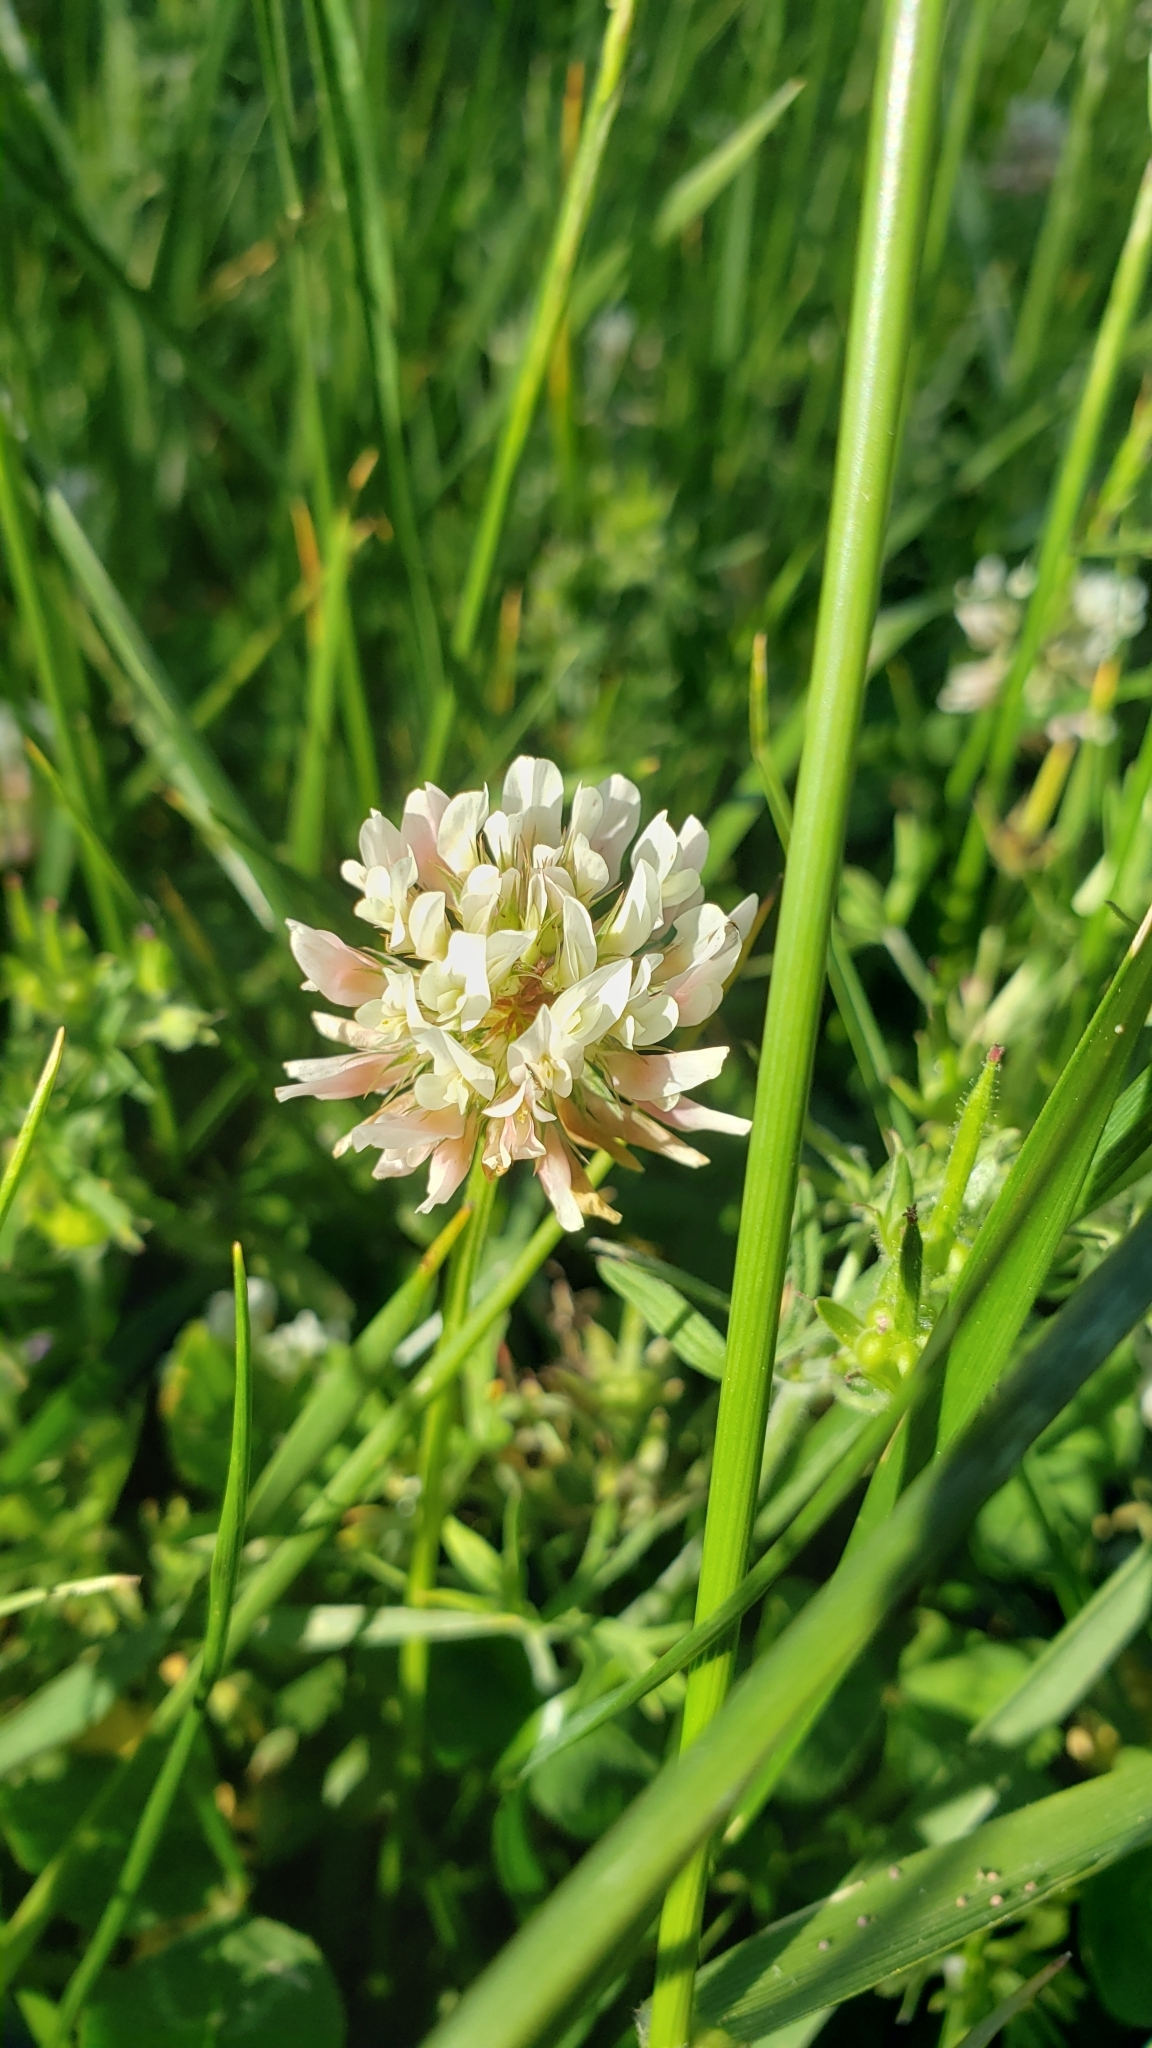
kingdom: Plantae
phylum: Tracheophyta
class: Magnoliopsida
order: Fabales
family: Fabaceae
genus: Trifolium
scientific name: Trifolium repens
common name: White clover
